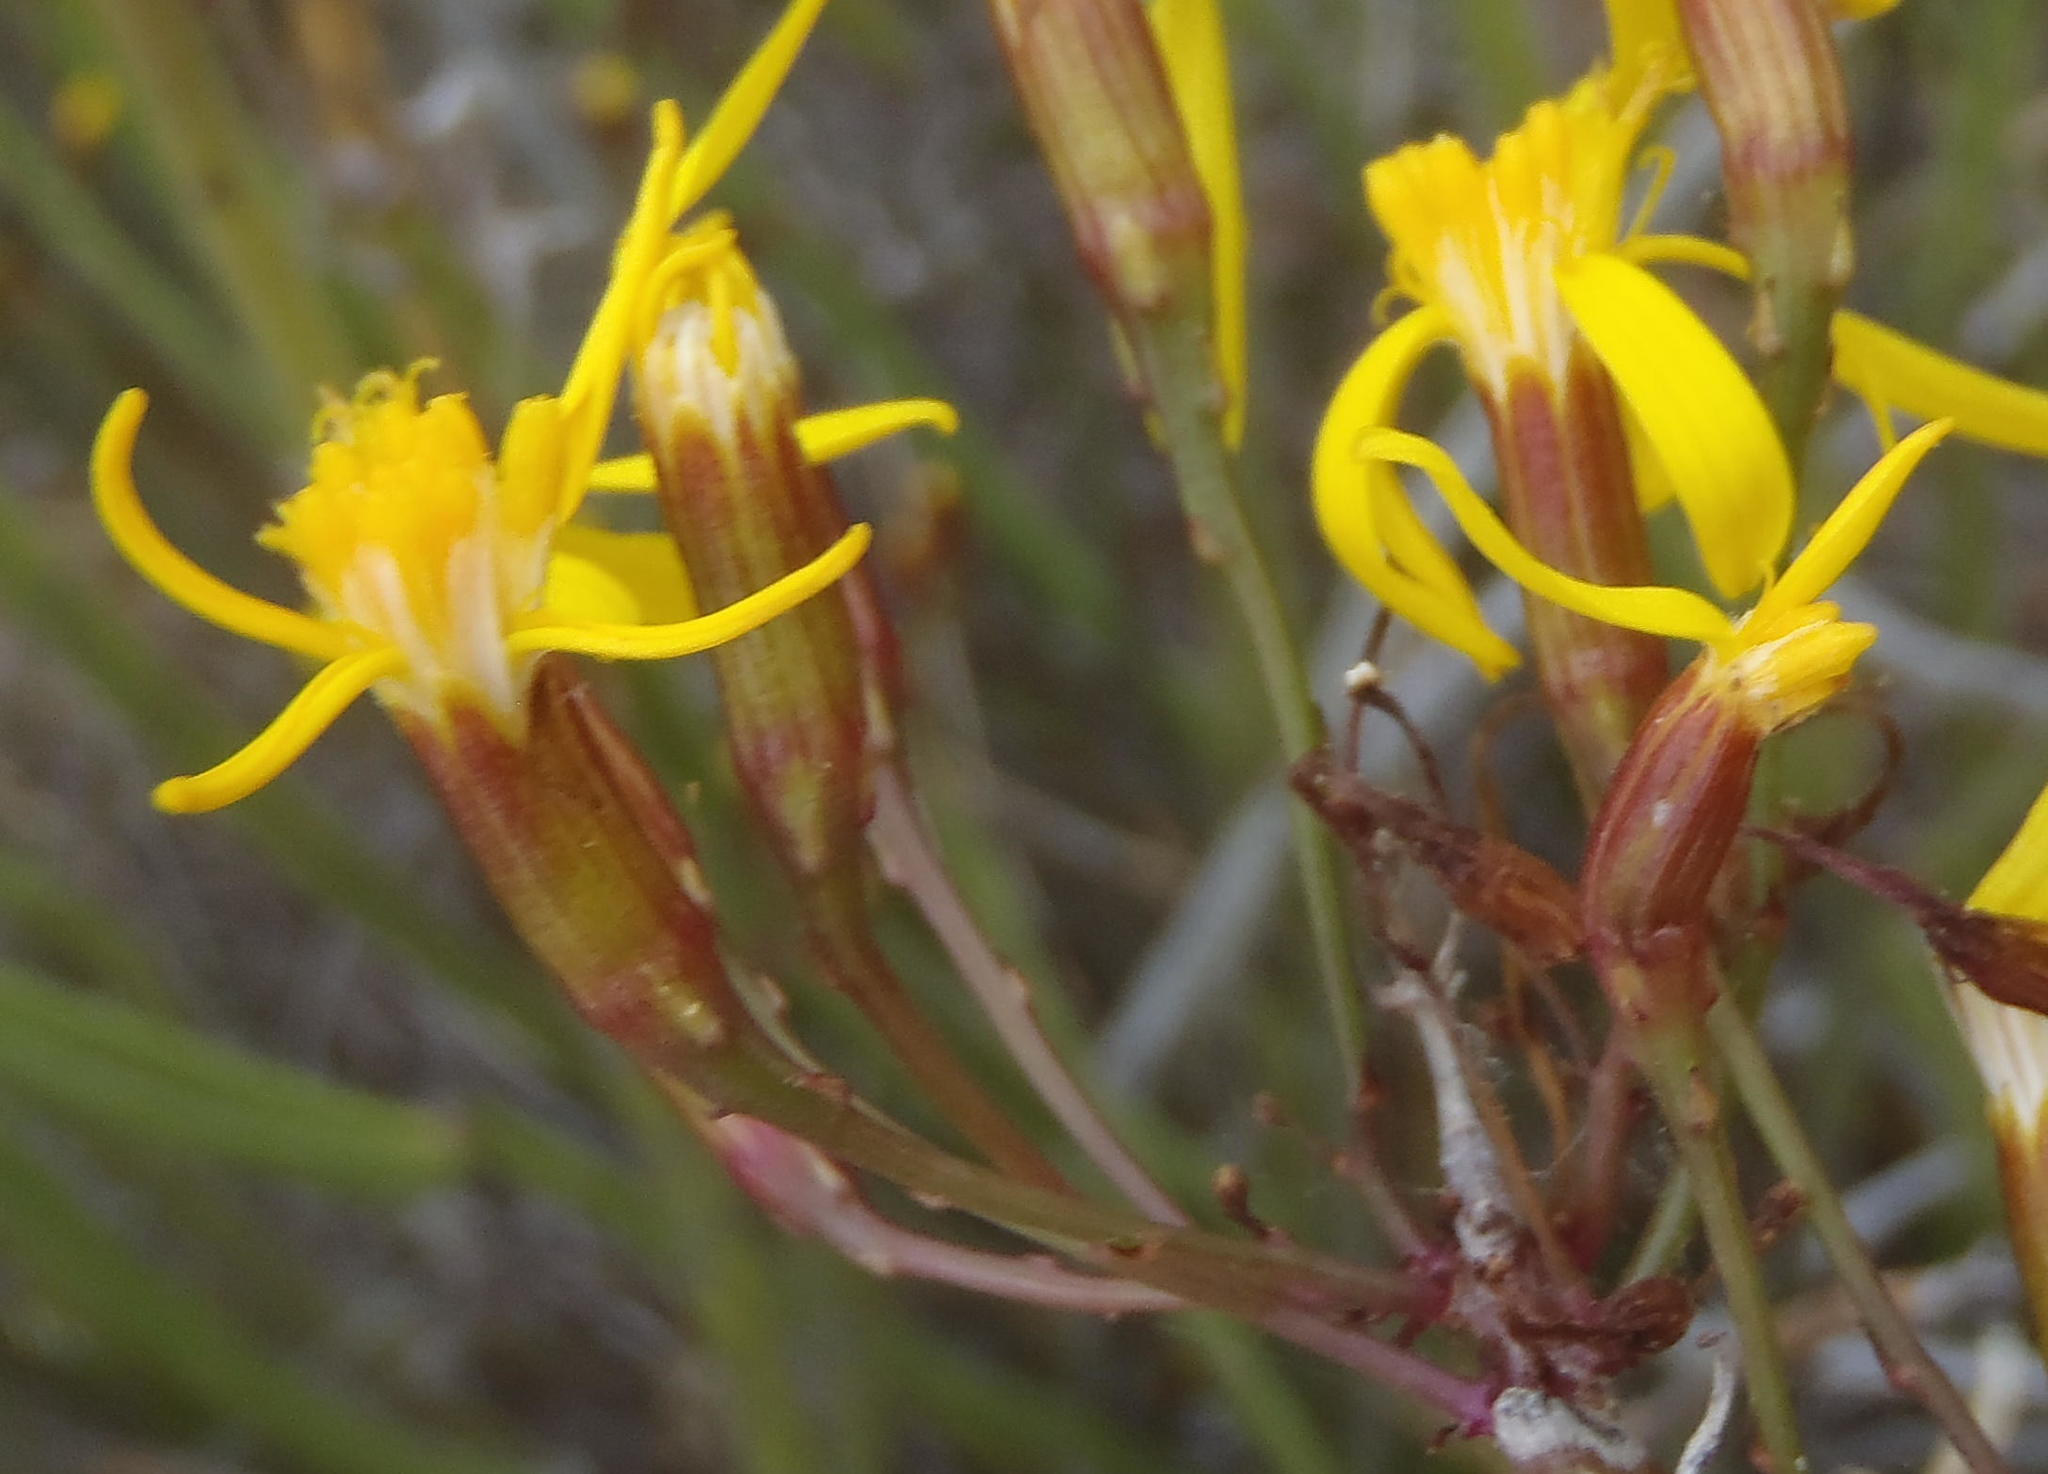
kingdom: Plantae
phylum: Tracheophyta
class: Magnoliopsida
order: Asterales
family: Asteraceae
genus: Senecio
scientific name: Senecio junceus
